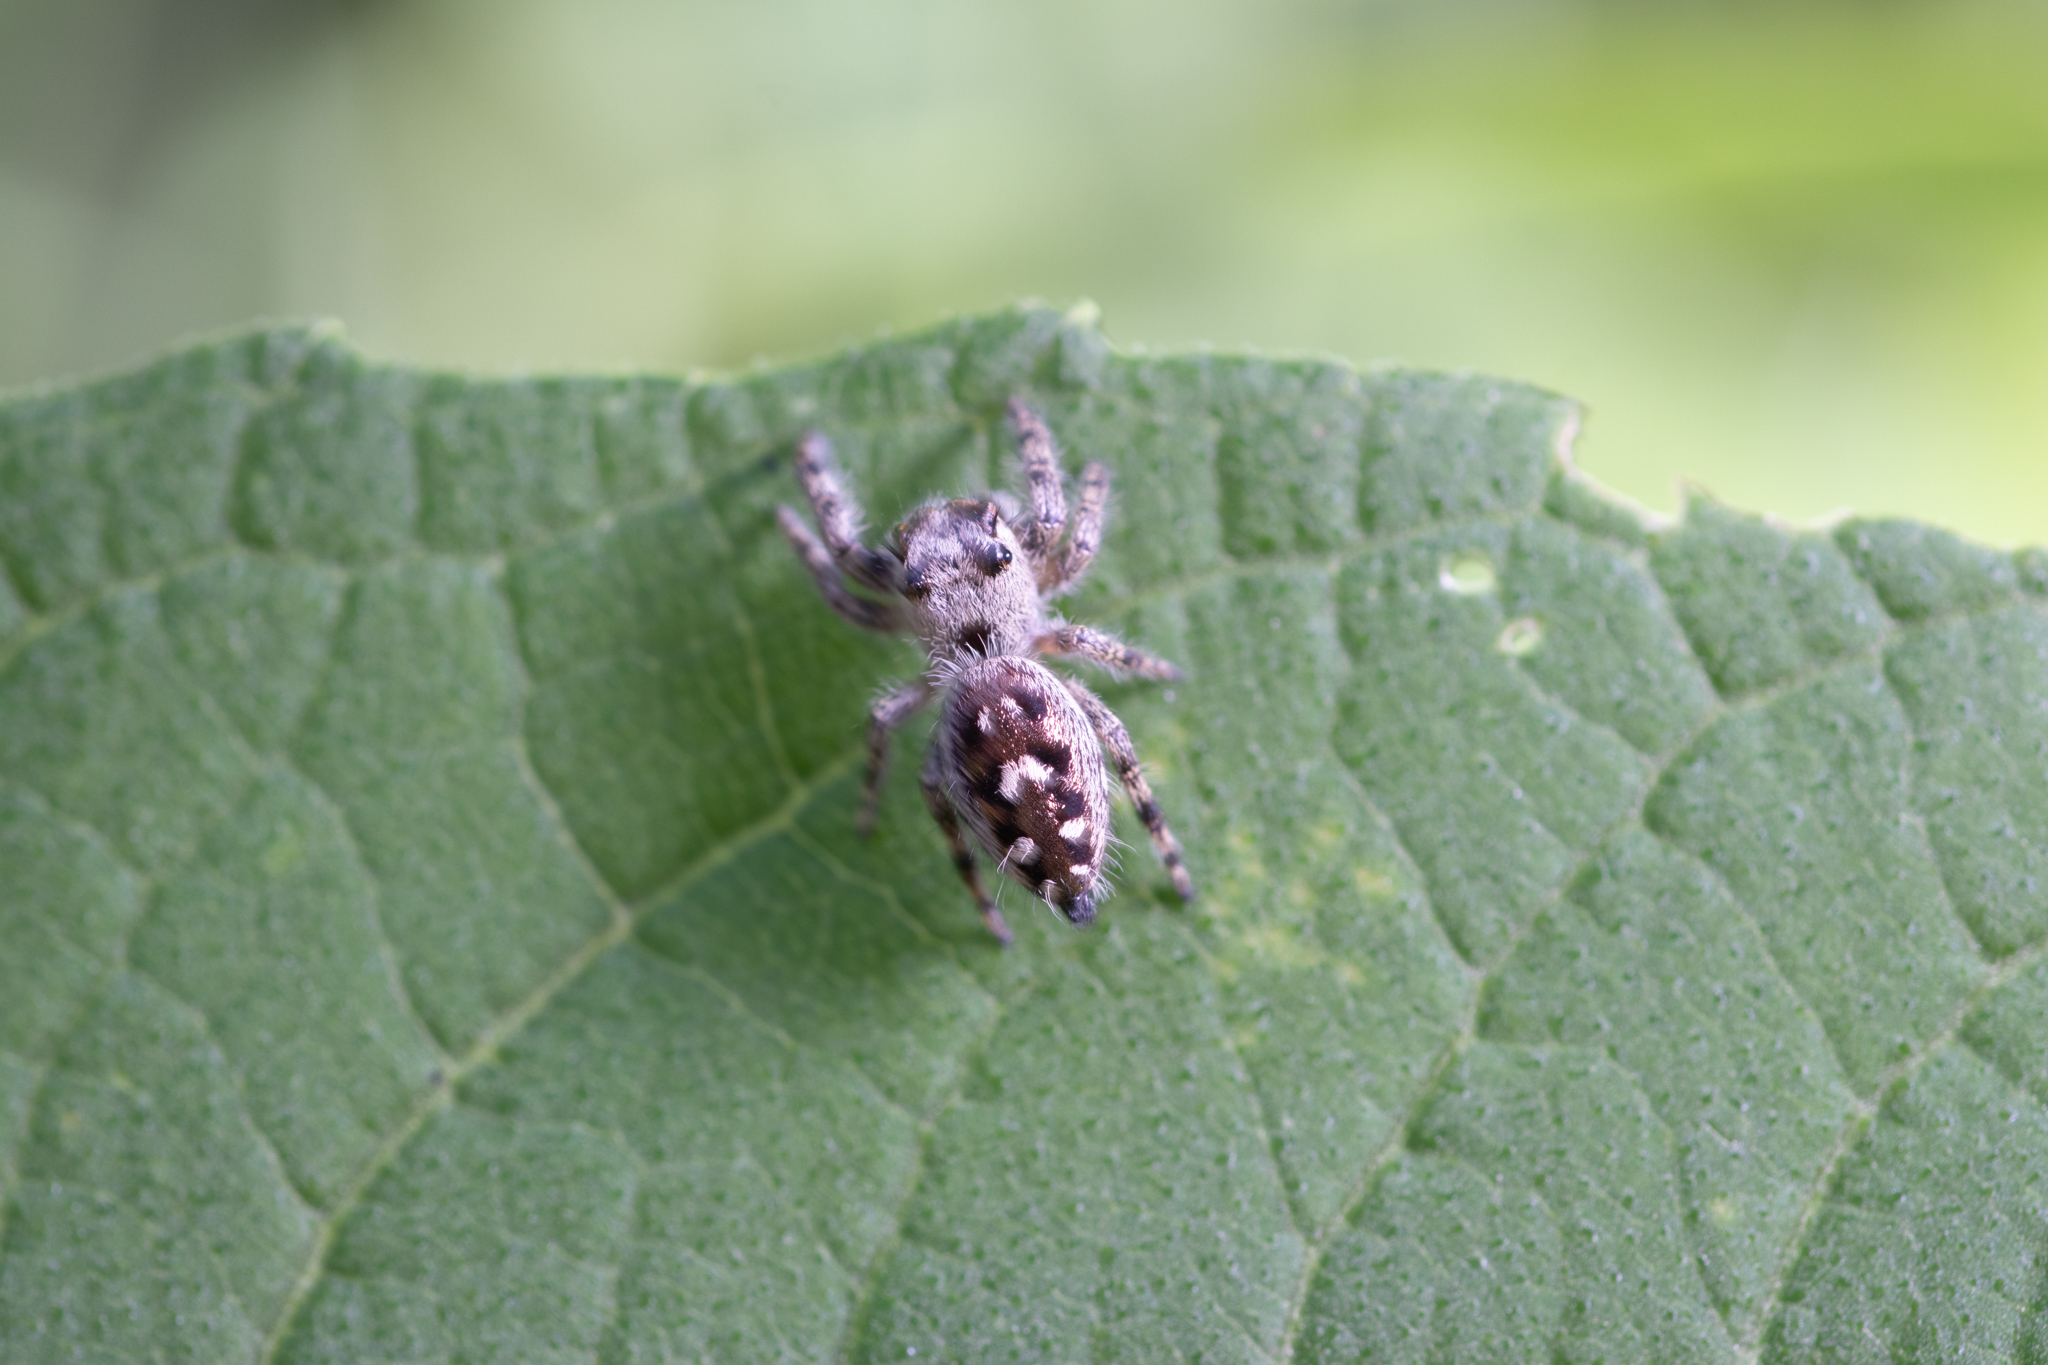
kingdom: Animalia
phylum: Arthropoda
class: Arachnida
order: Araneae
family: Salticidae
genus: Phidippus
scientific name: Phidippus otiosus
